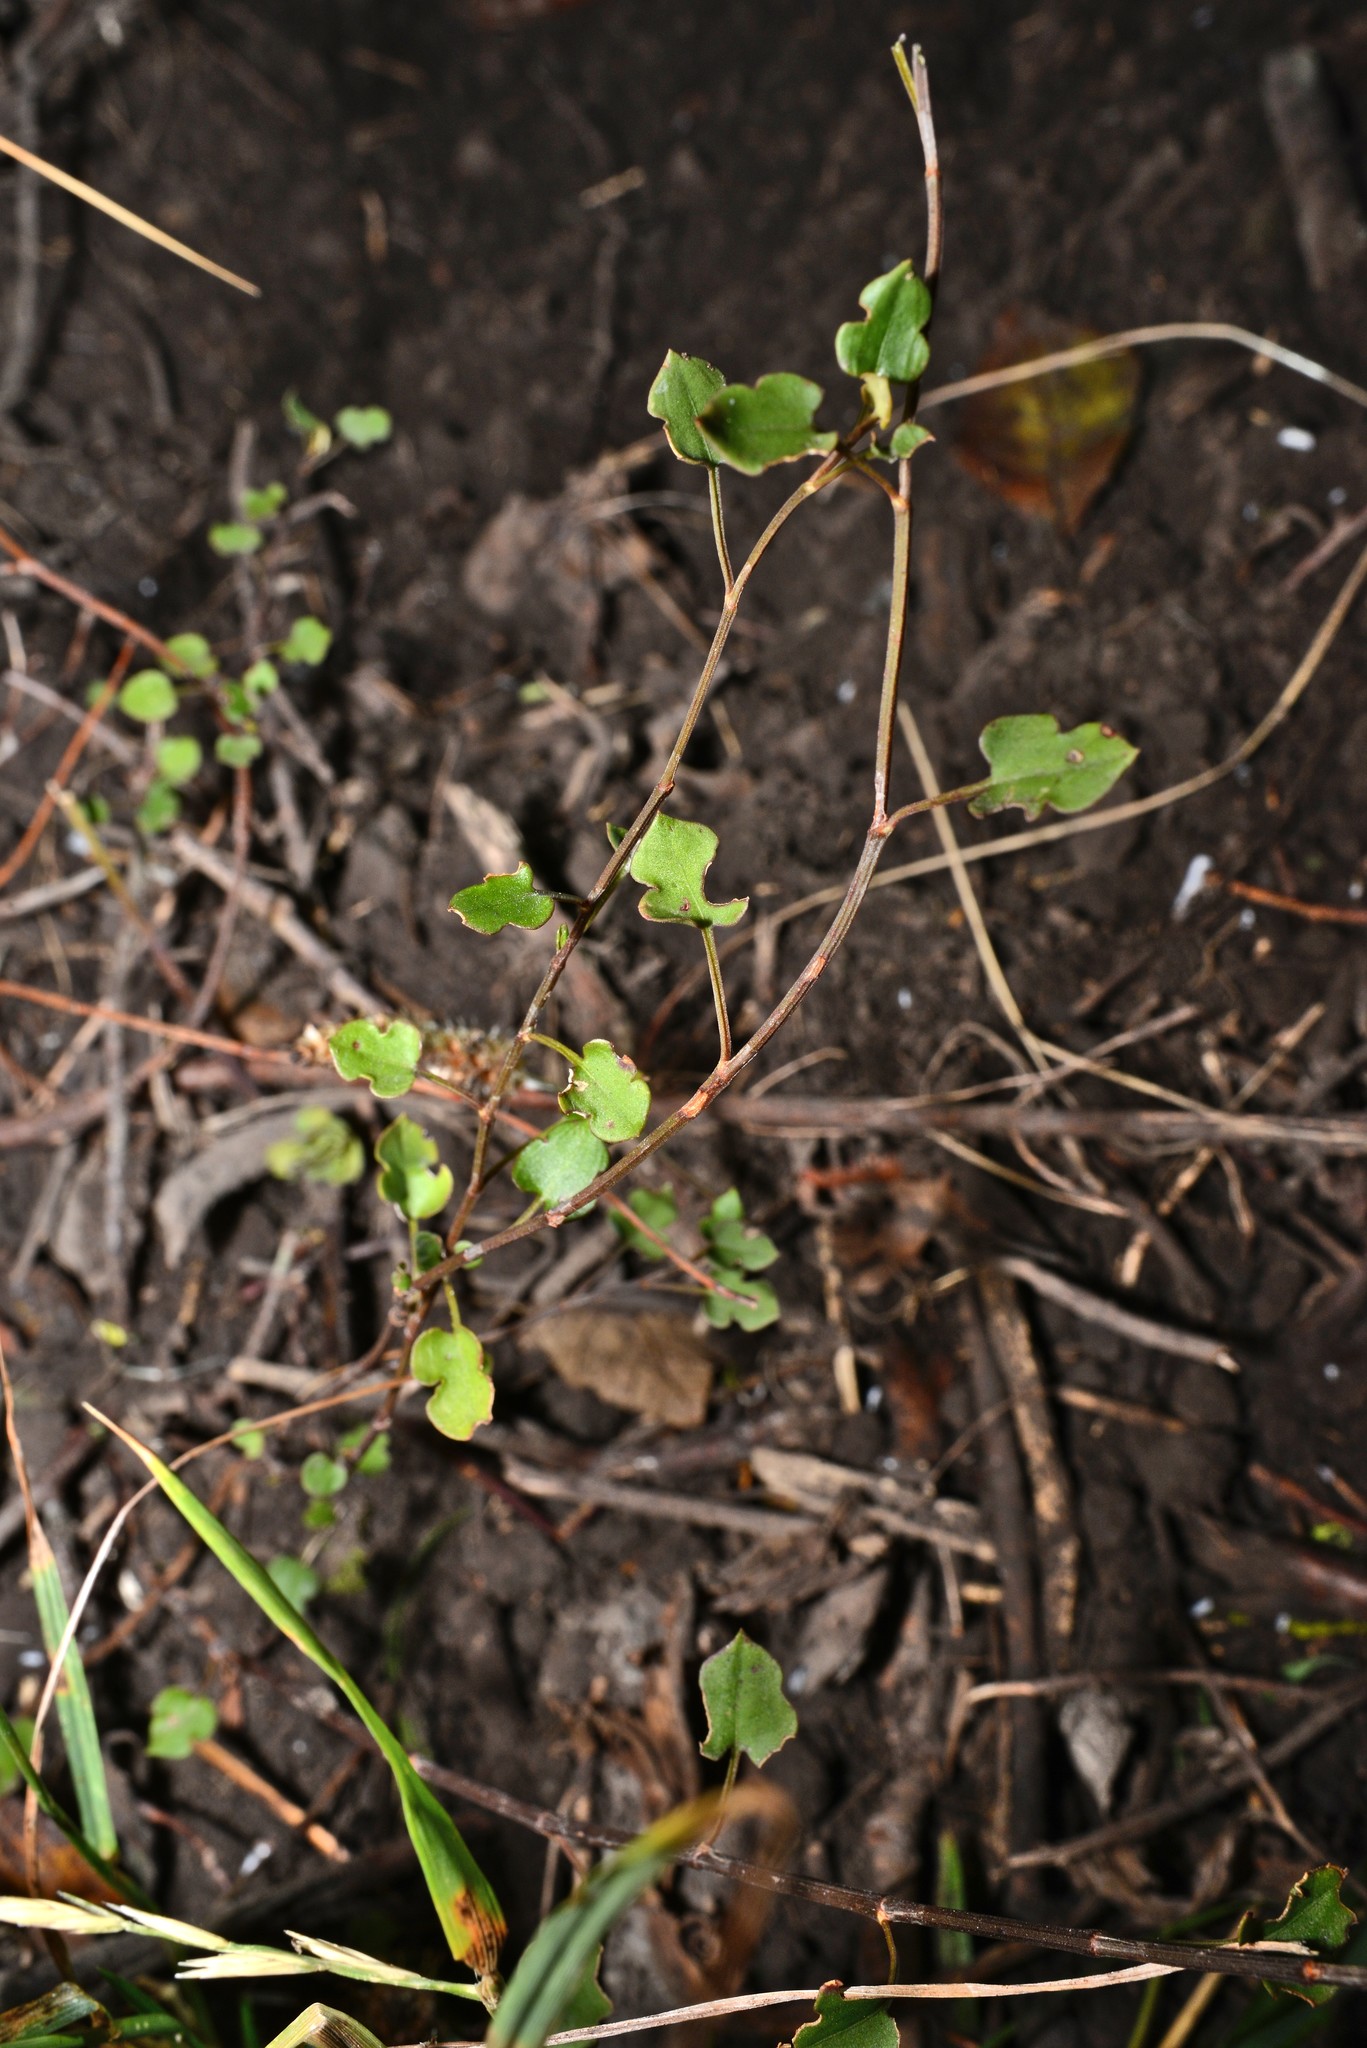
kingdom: Plantae
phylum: Tracheophyta
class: Magnoliopsida
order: Caryophyllales
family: Polygonaceae
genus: Muehlenbeckia
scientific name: Muehlenbeckia australis
